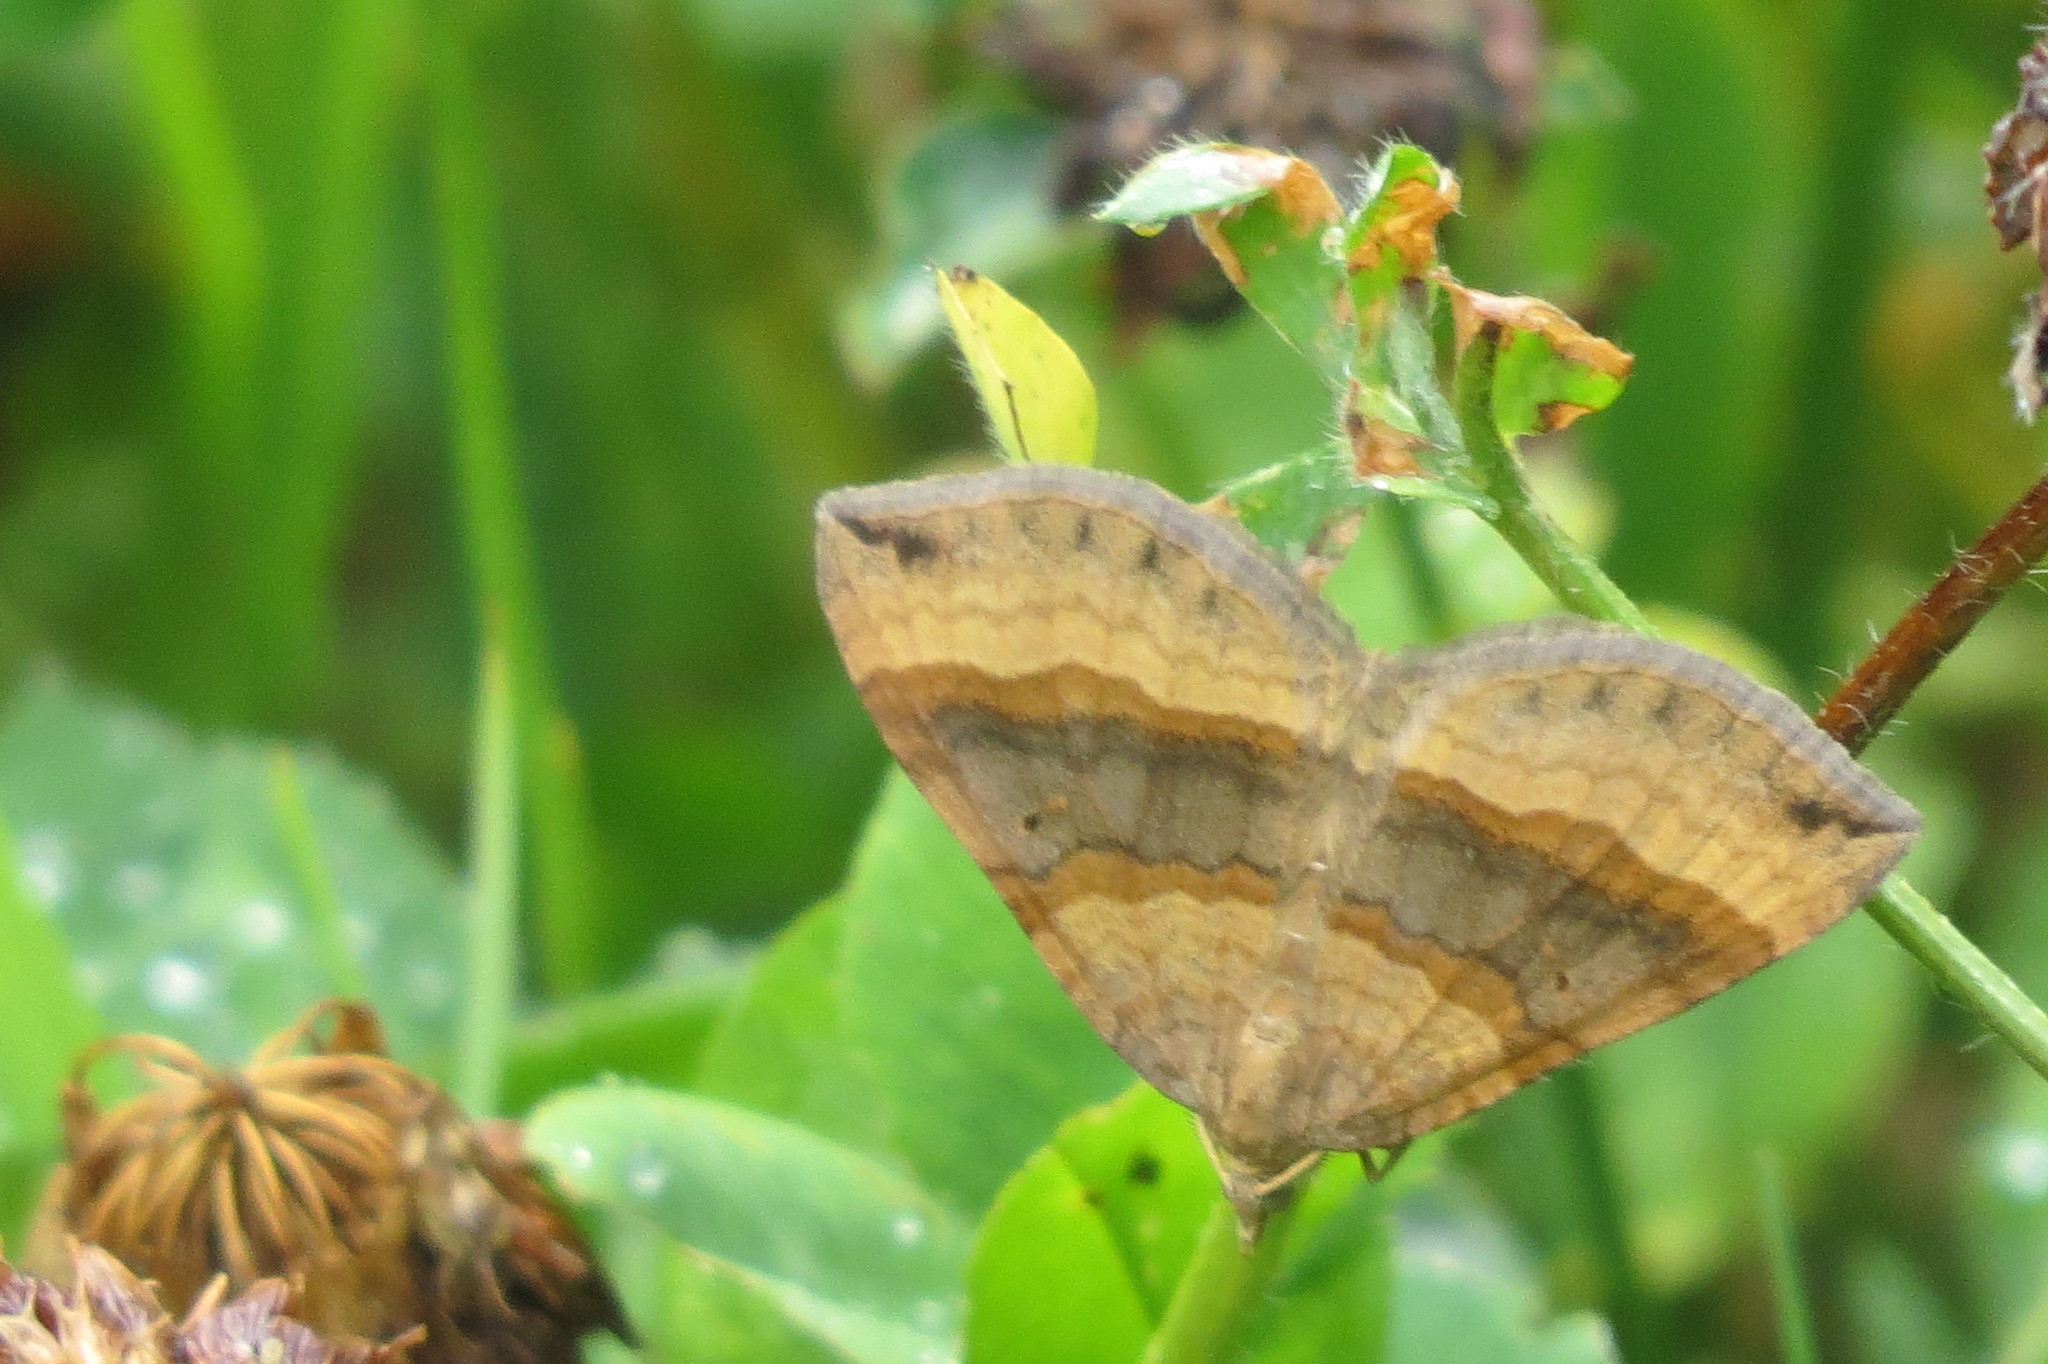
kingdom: Animalia
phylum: Arthropoda
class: Insecta
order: Lepidoptera
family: Geometridae
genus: Scotopteryx
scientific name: Scotopteryx chenopodiata
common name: Shaded broad-bar
